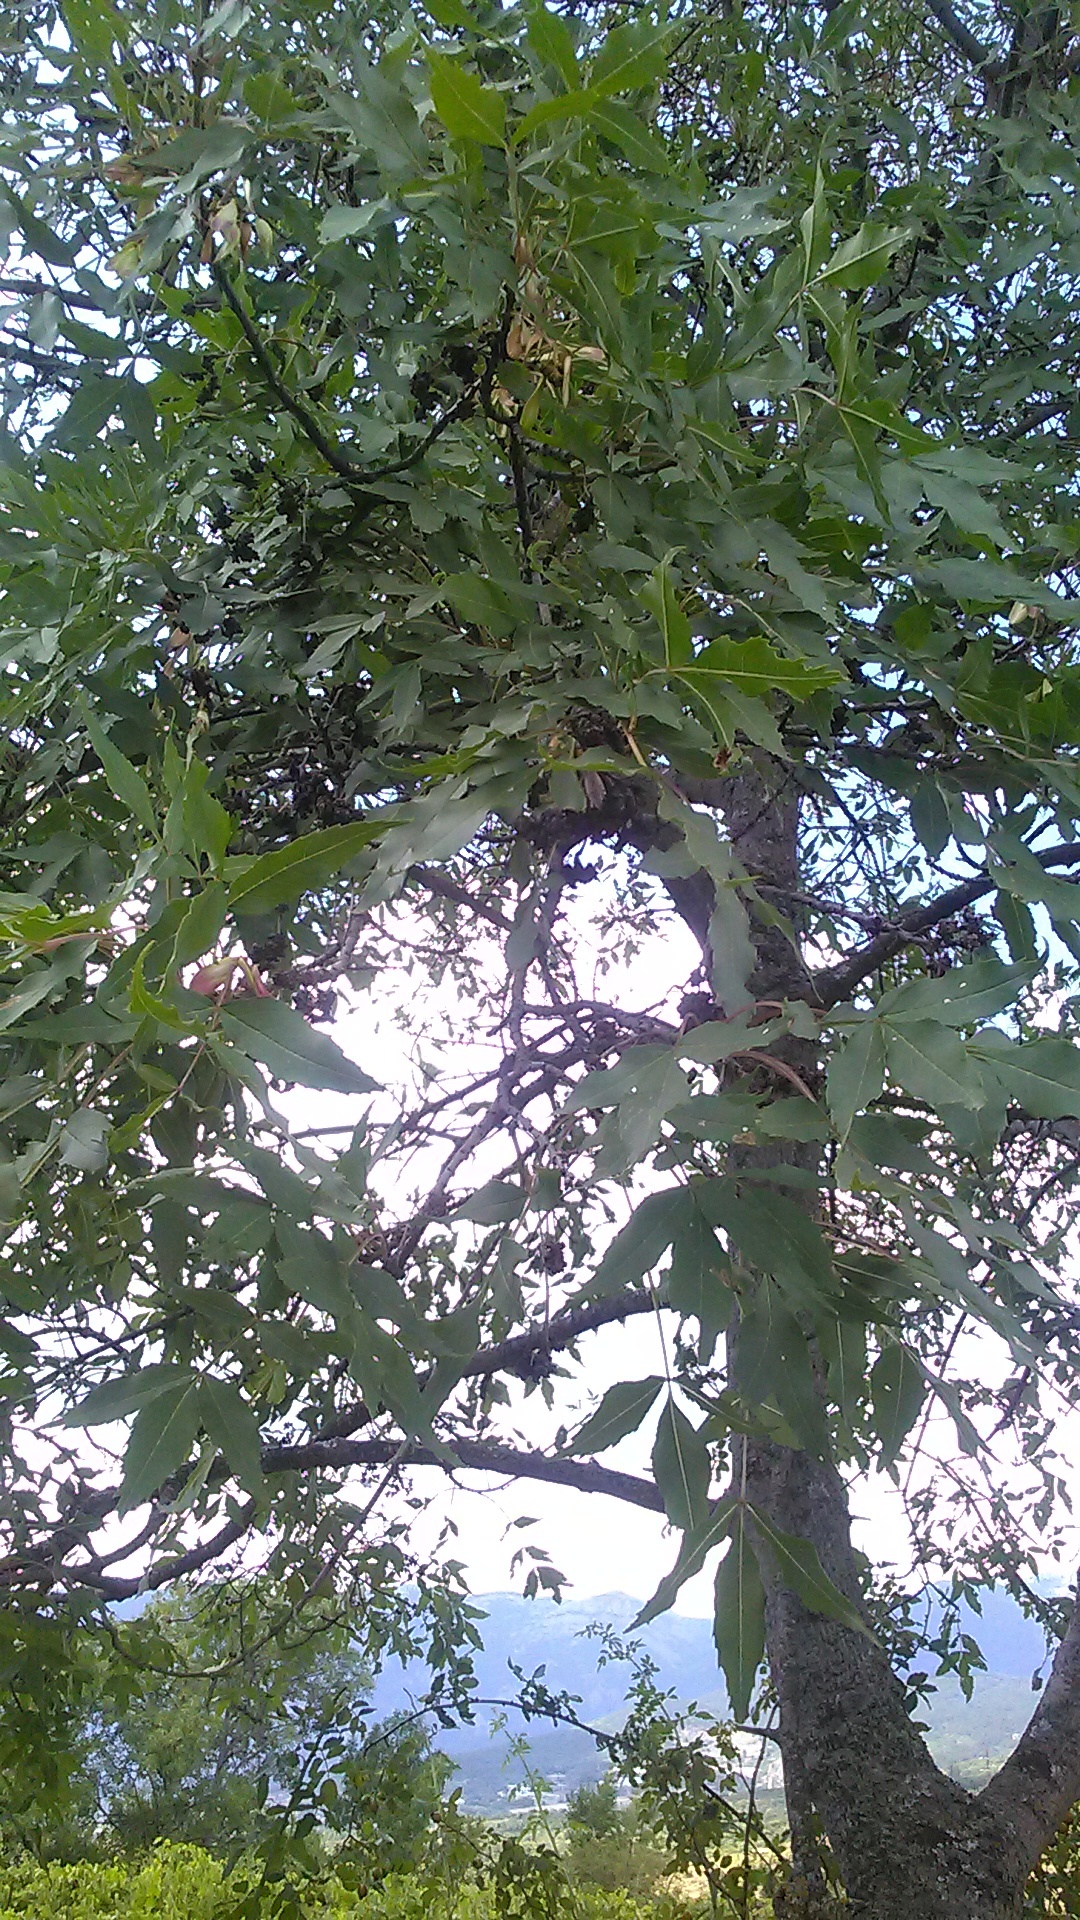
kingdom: Plantae
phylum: Tracheophyta
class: Magnoliopsida
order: Lamiales
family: Oleaceae
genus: Fraxinus
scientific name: Fraxinus excelsior
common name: European ash
